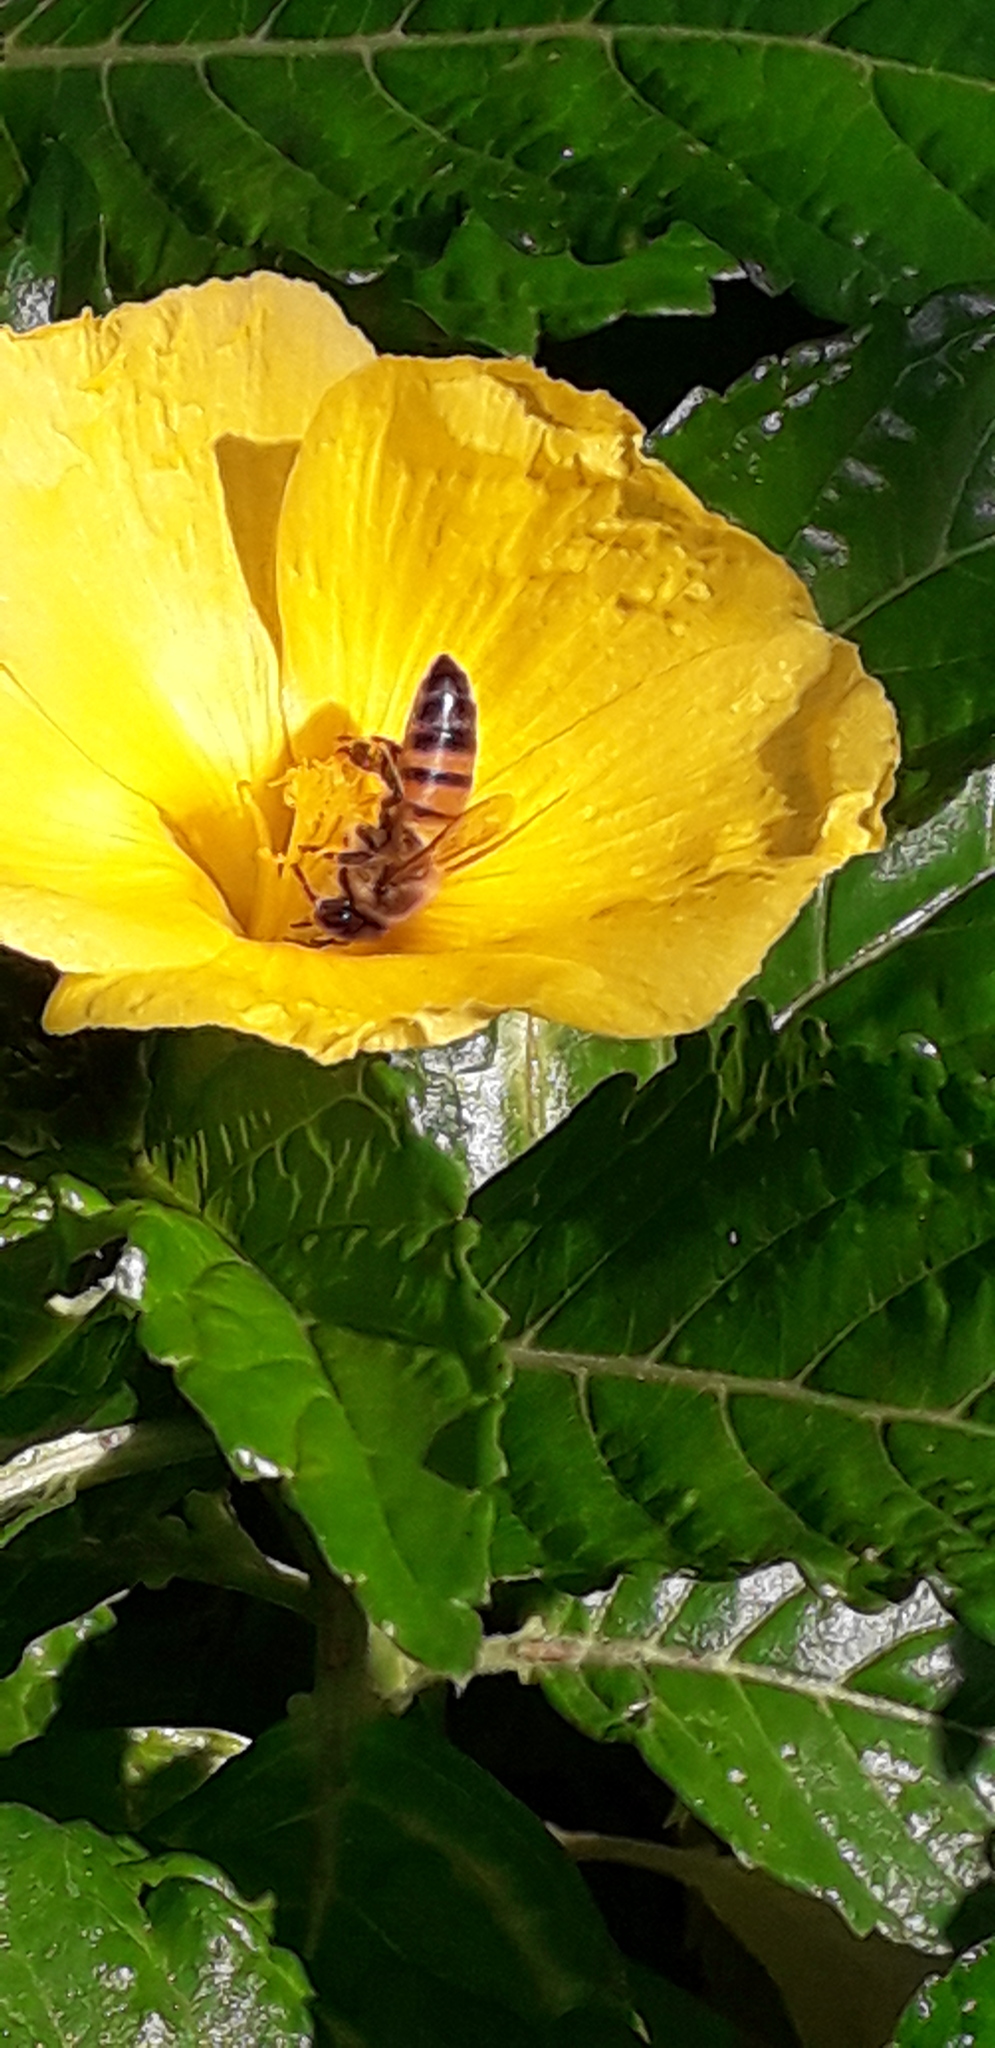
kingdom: Animalia
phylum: Arthropoda
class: Insecta
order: Hymenoptera
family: Apidae
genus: Apis
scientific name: Apis mellifera
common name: Honey bee
